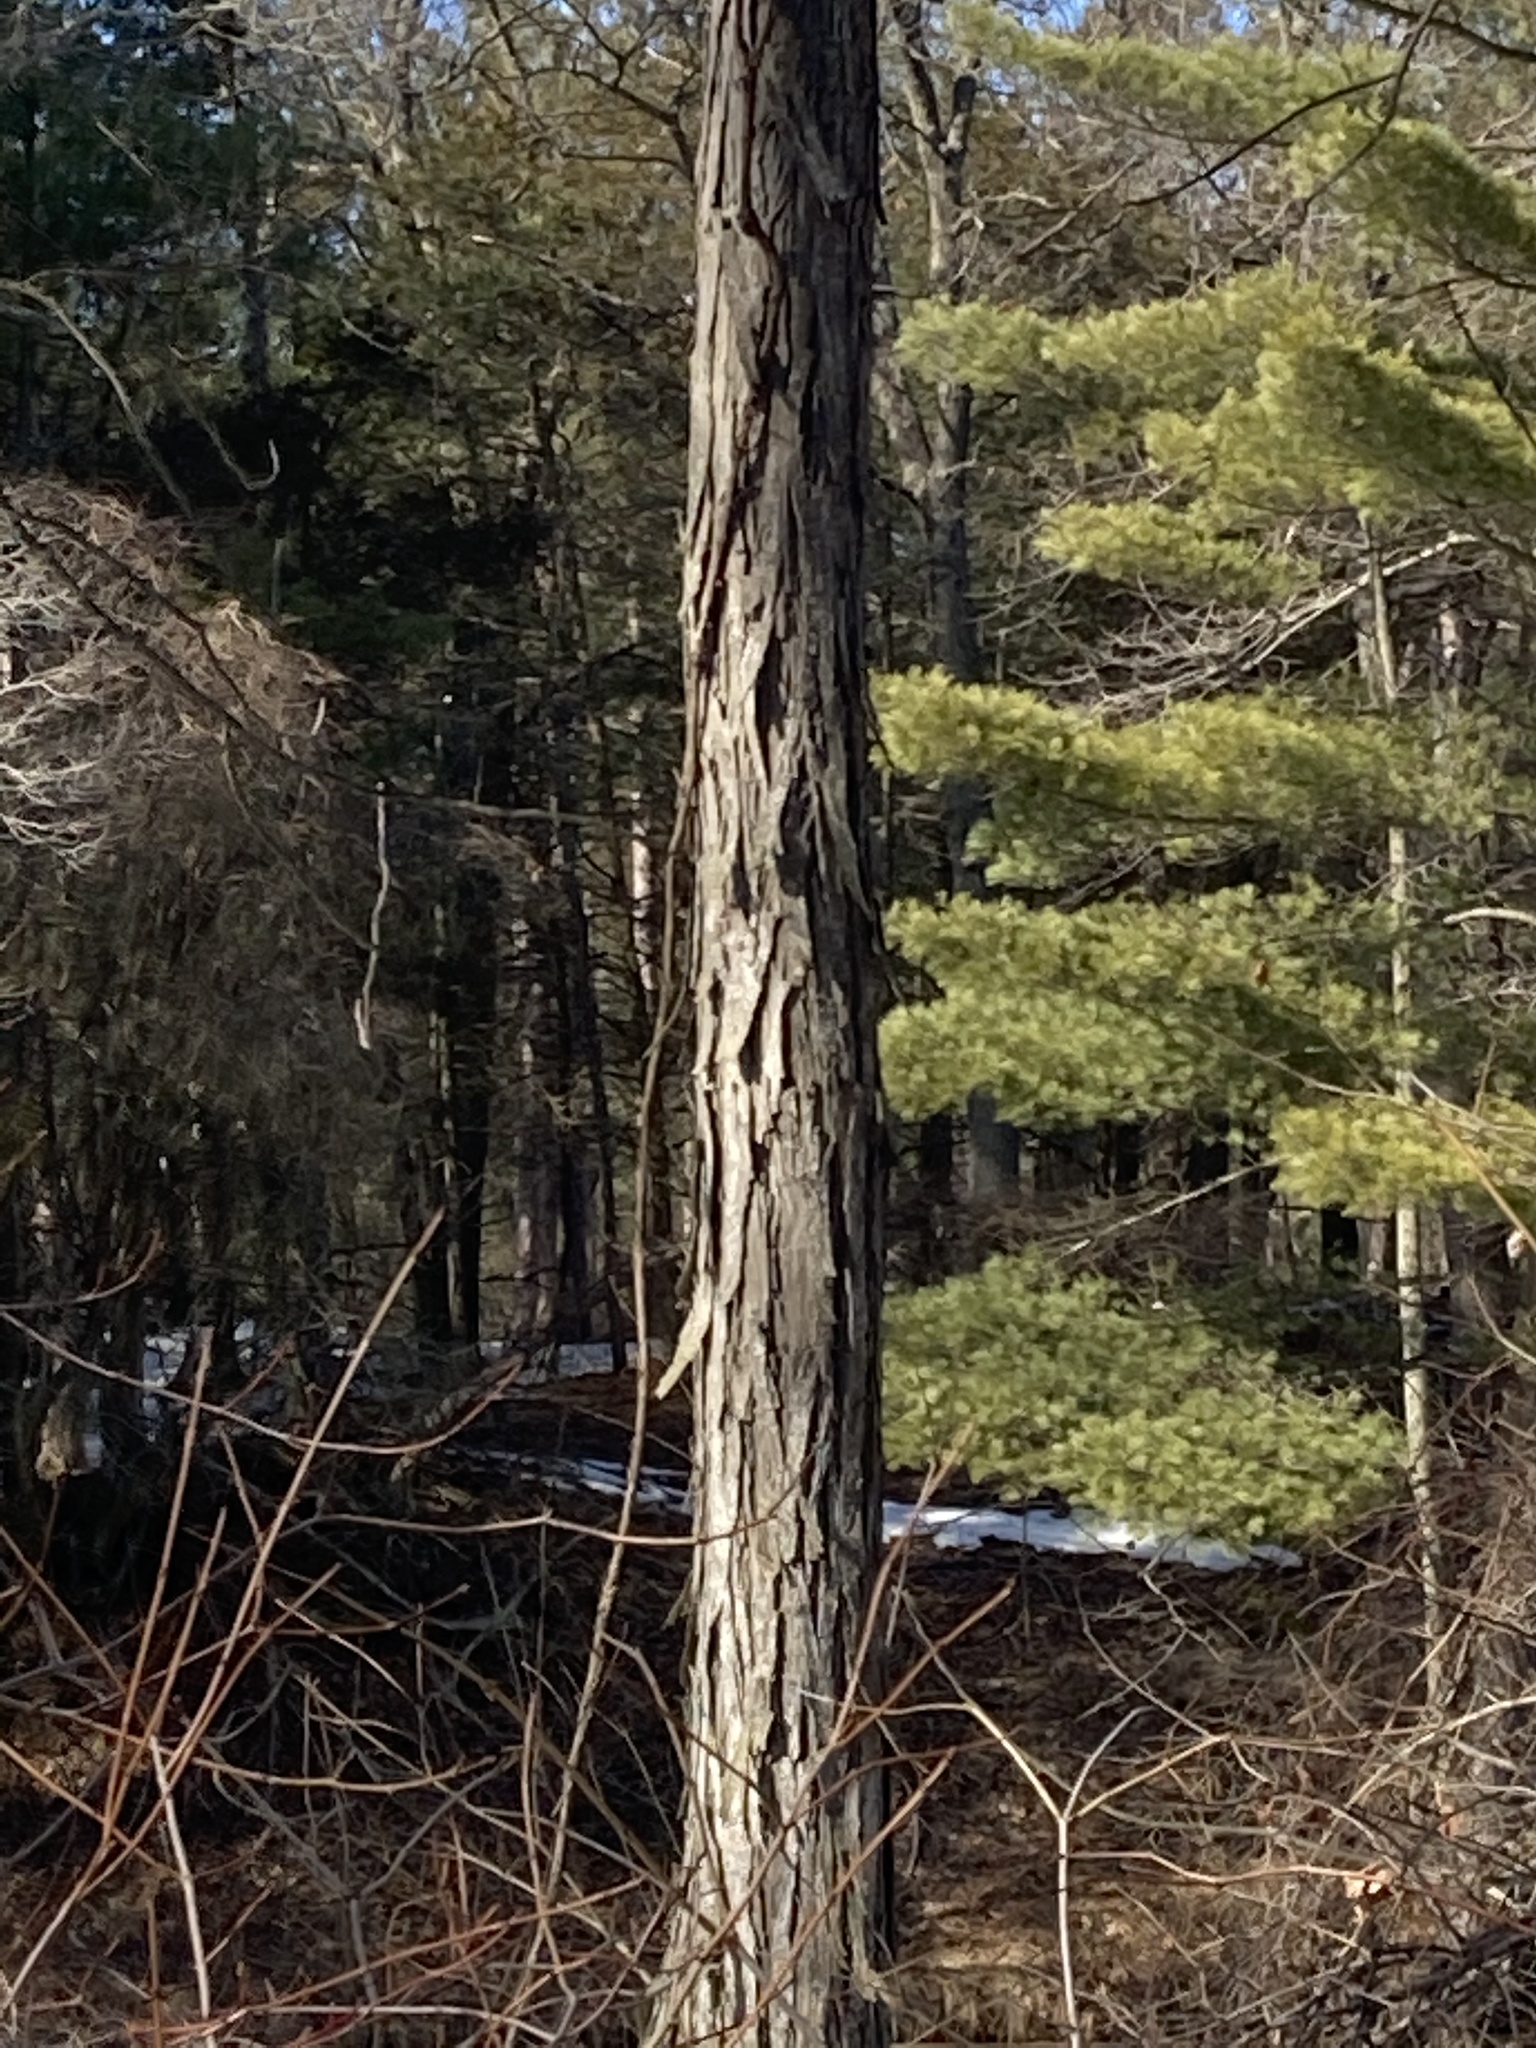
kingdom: Plantae
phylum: Tracheophyta
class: Magnoliopsida
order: Fagales
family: Juglandaceae
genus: Carya
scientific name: Carya ovata
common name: Shagbark hickory
